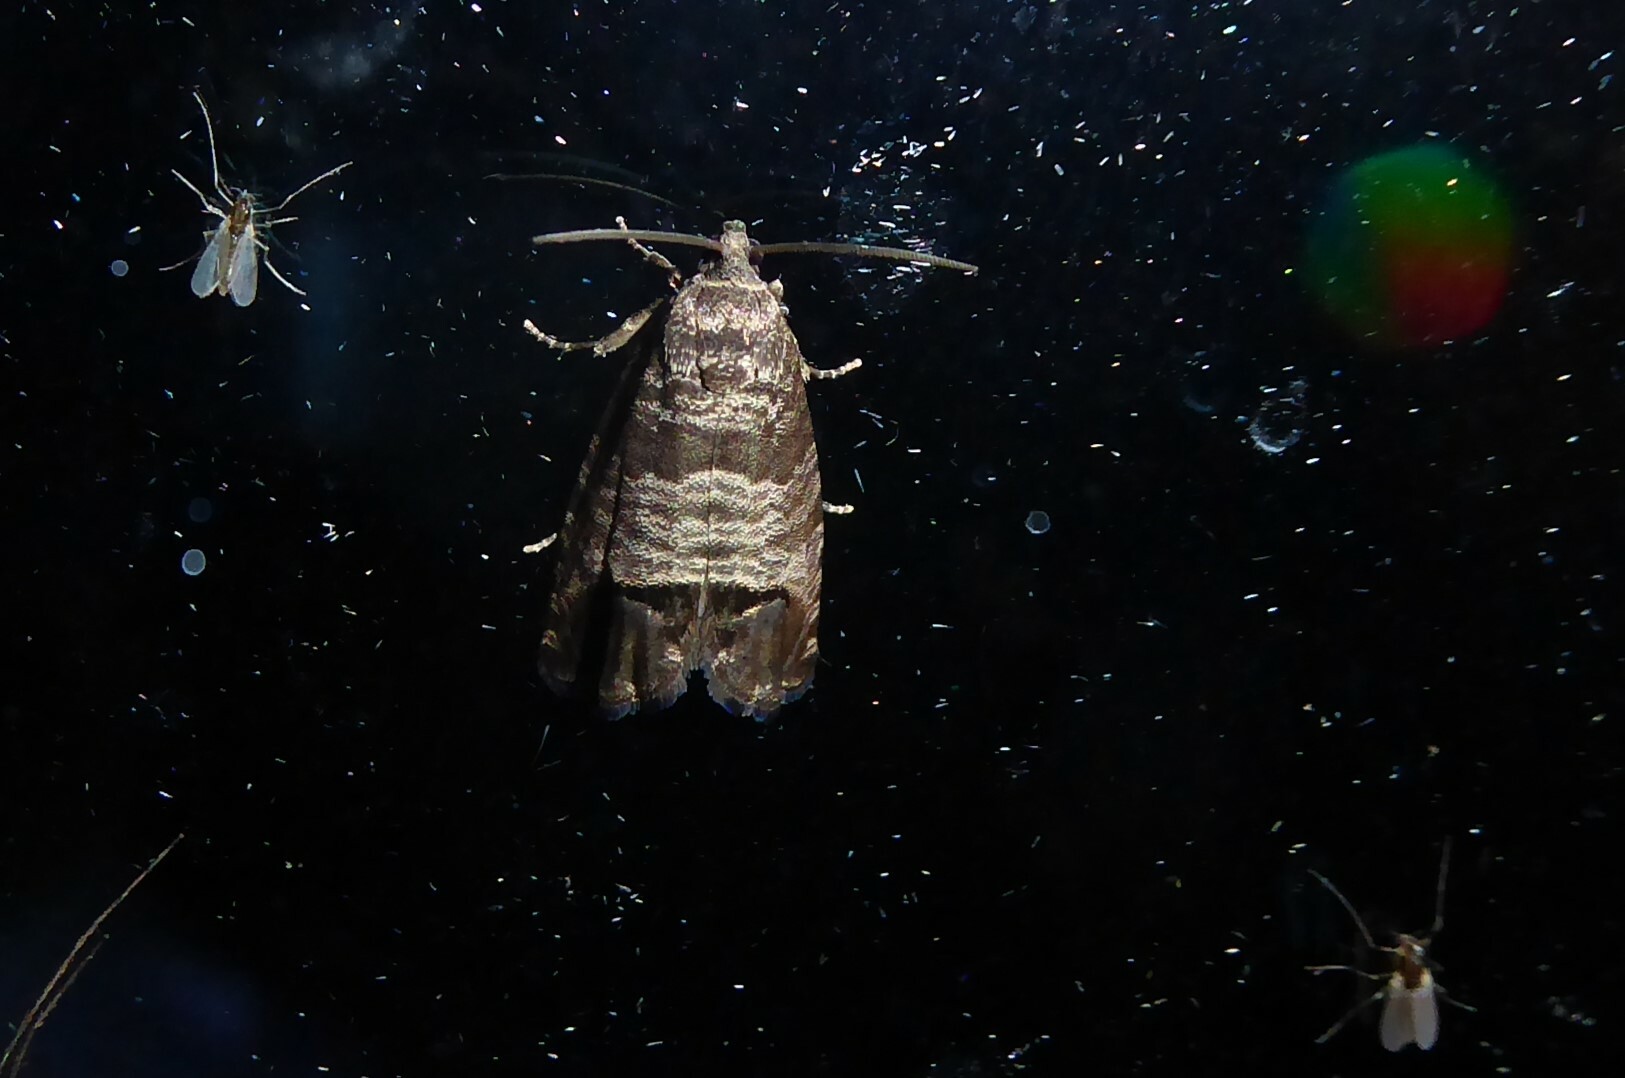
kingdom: Animalia
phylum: Arthropoda
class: Insecta
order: Lepidoptera
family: Tortricidae
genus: Cydia
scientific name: Cydia pomonella
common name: Codling moth
